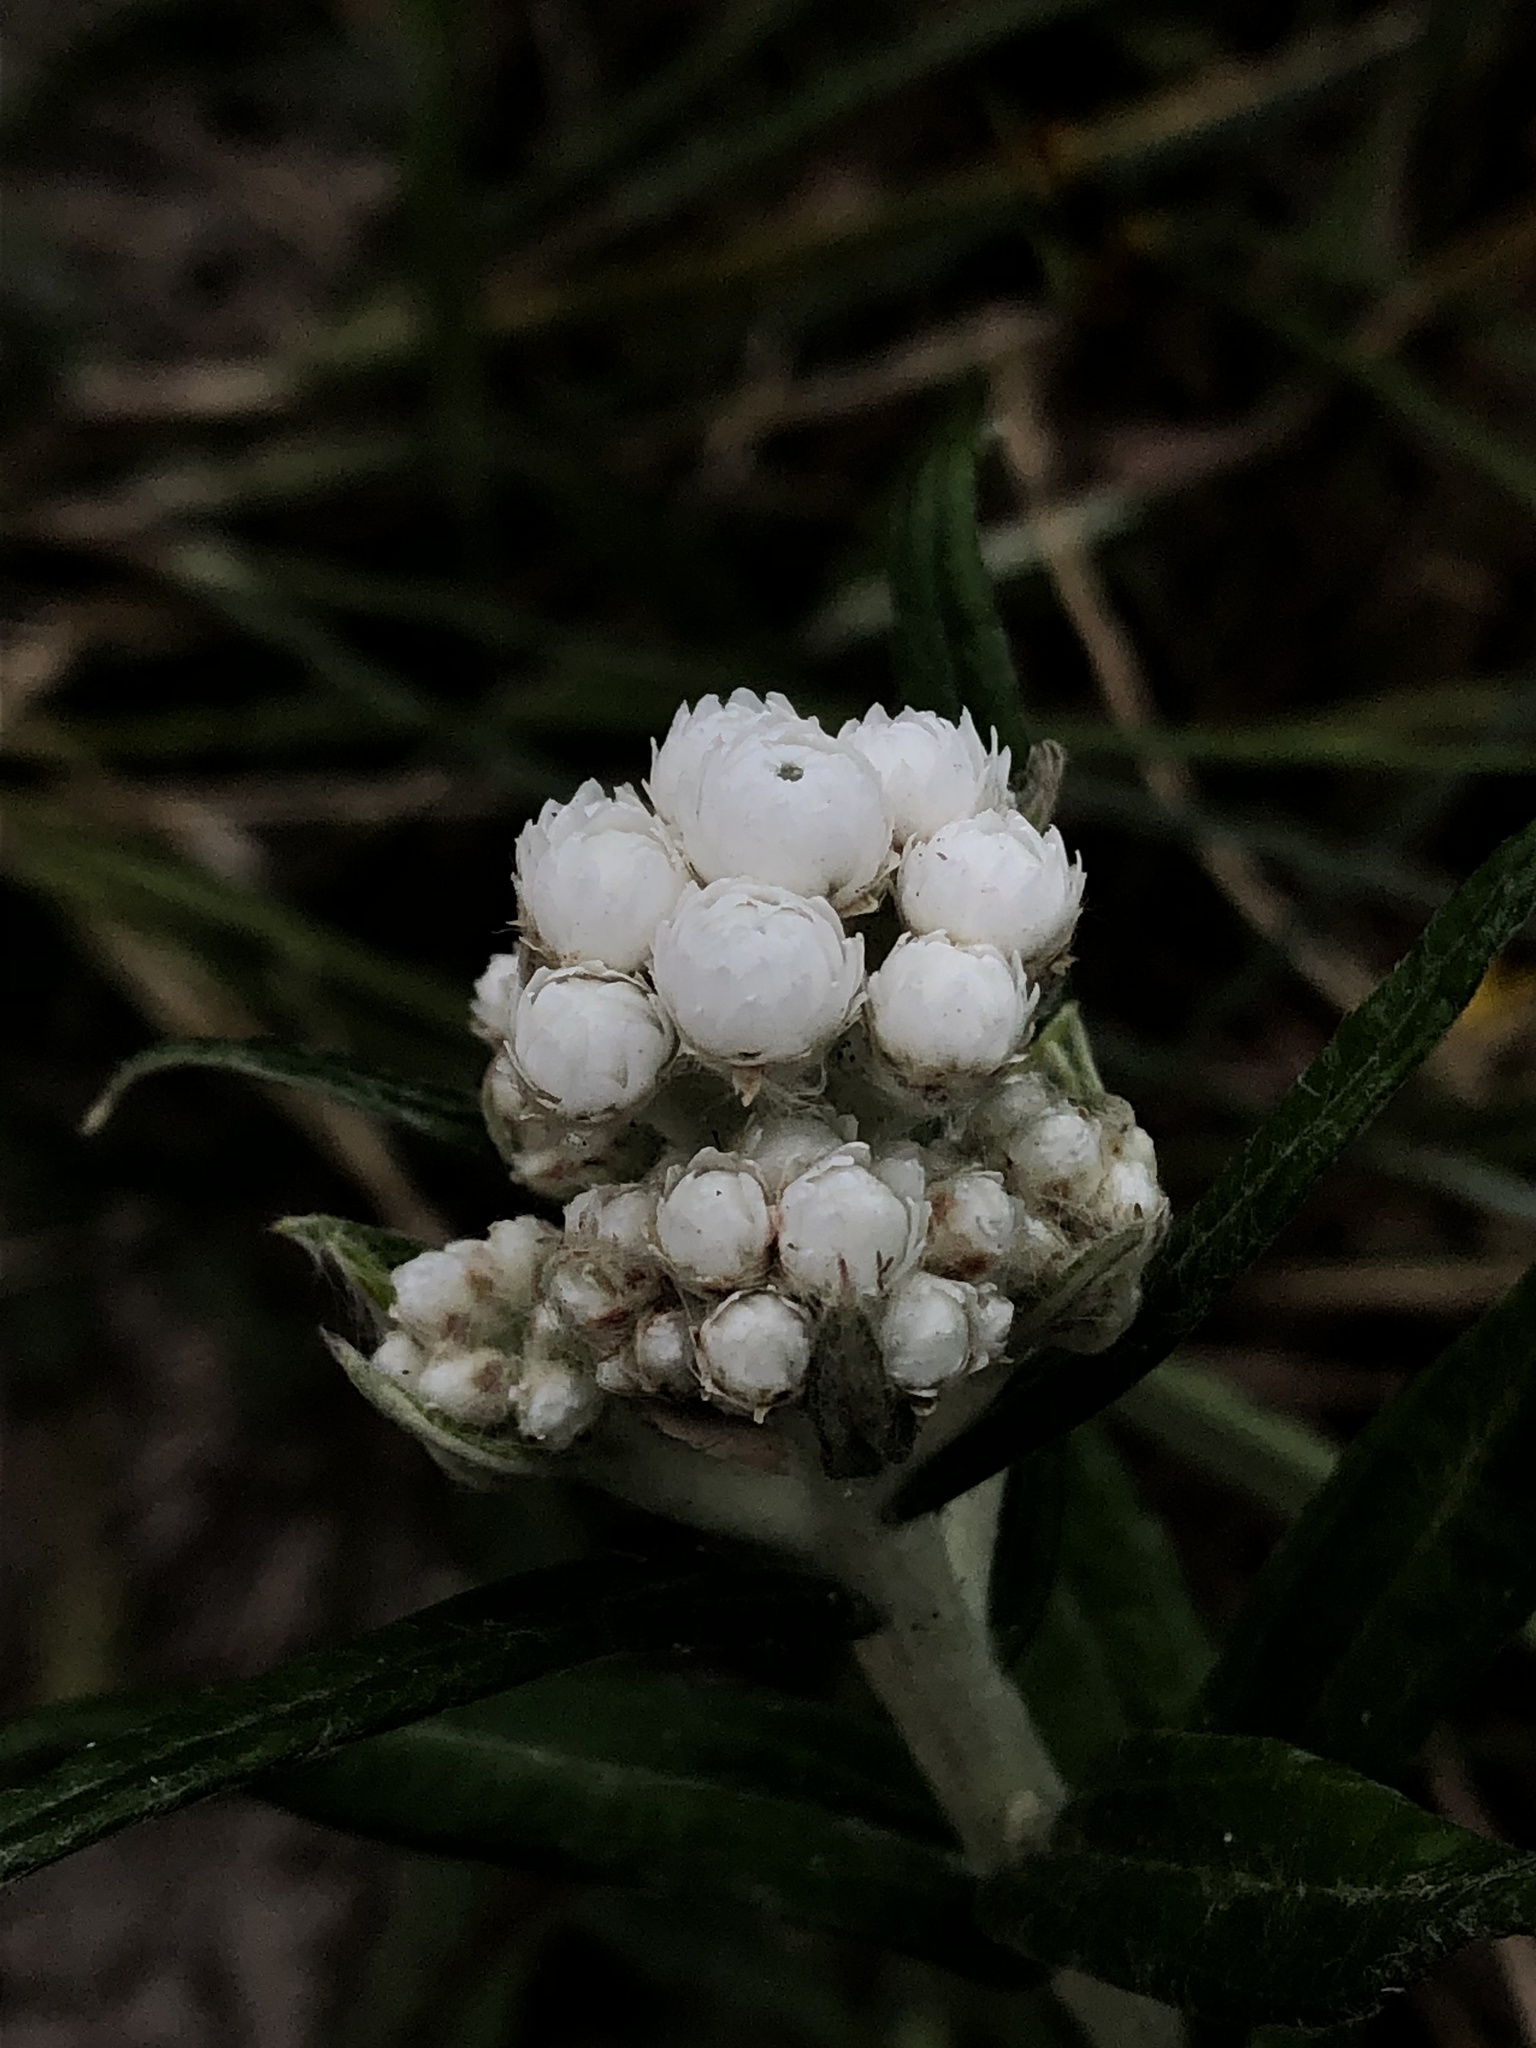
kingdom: Plantae
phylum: Tracheophyta
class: Magnoliopsida
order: Asterales
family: Asteraceae
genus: Anaphalis
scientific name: Anaphalis margaritacea
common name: Pearly everlasting
